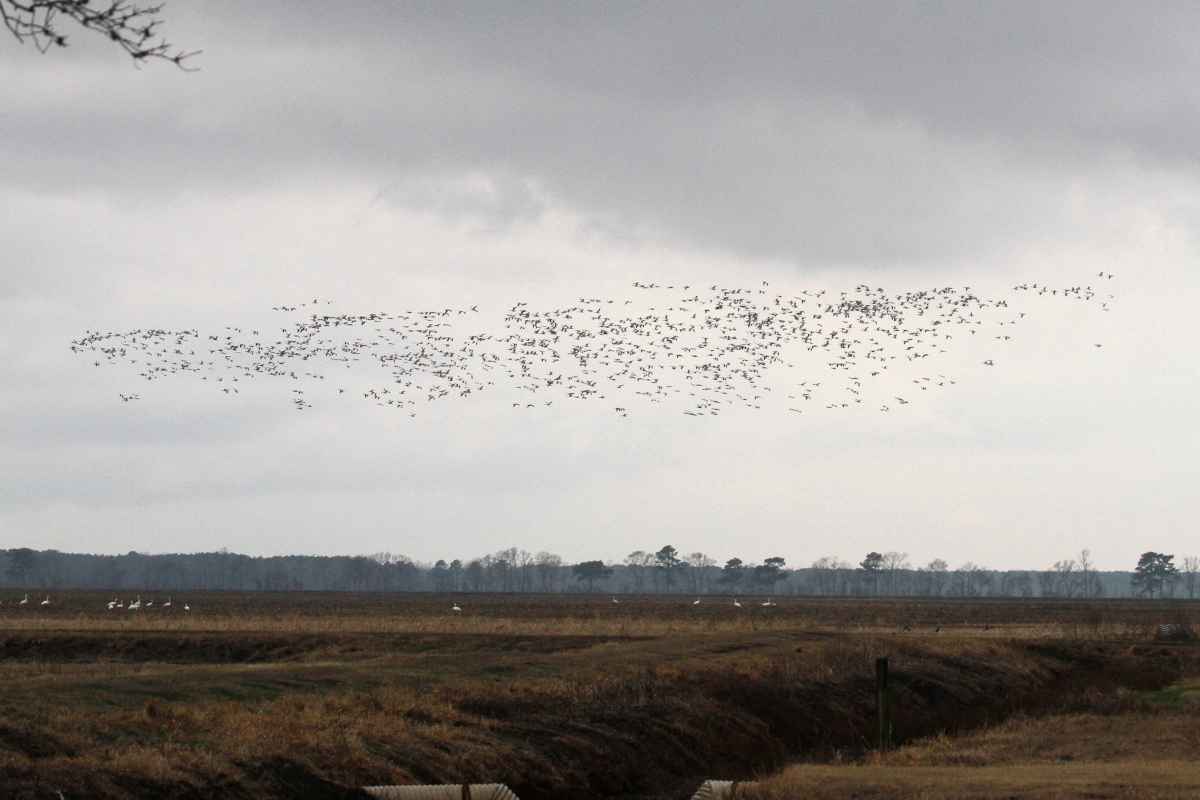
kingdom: Animalia
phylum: Chordata
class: Aves
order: Anseriformes
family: Anatidae
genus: Anser
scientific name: Anser caerulescens
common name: Snow goose
